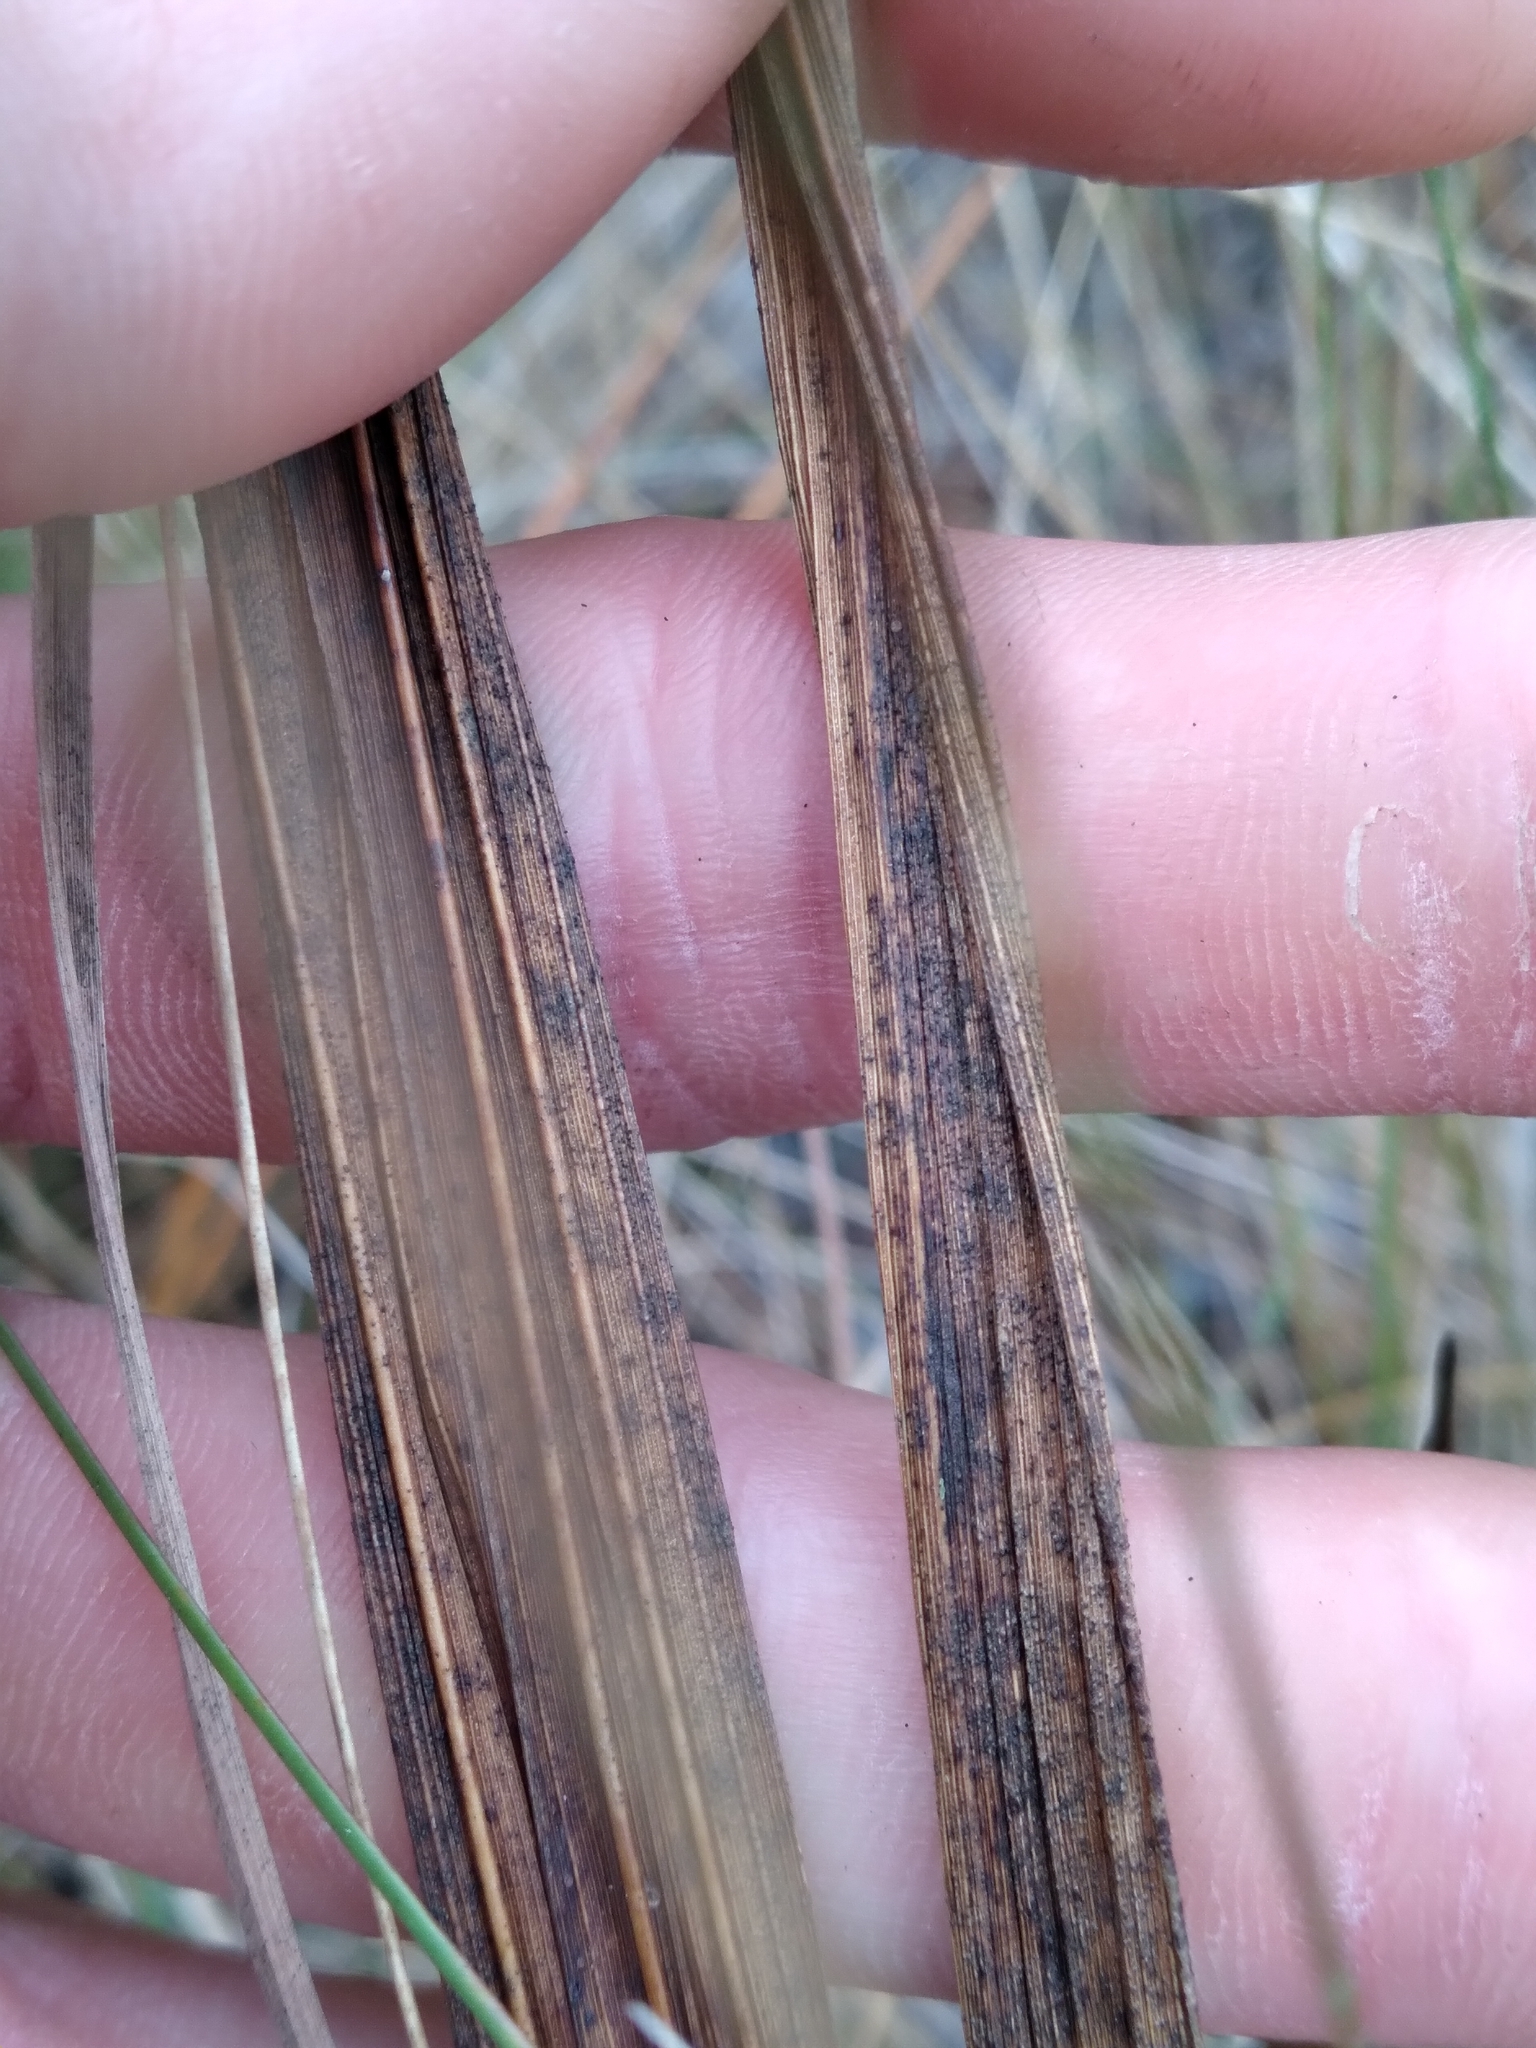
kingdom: Plantae
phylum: Tracheophyta
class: Liliopsida
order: Asparagales
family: Orchidaceae
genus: Eulophia
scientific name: Eulophia ecristata
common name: Giant orchid
